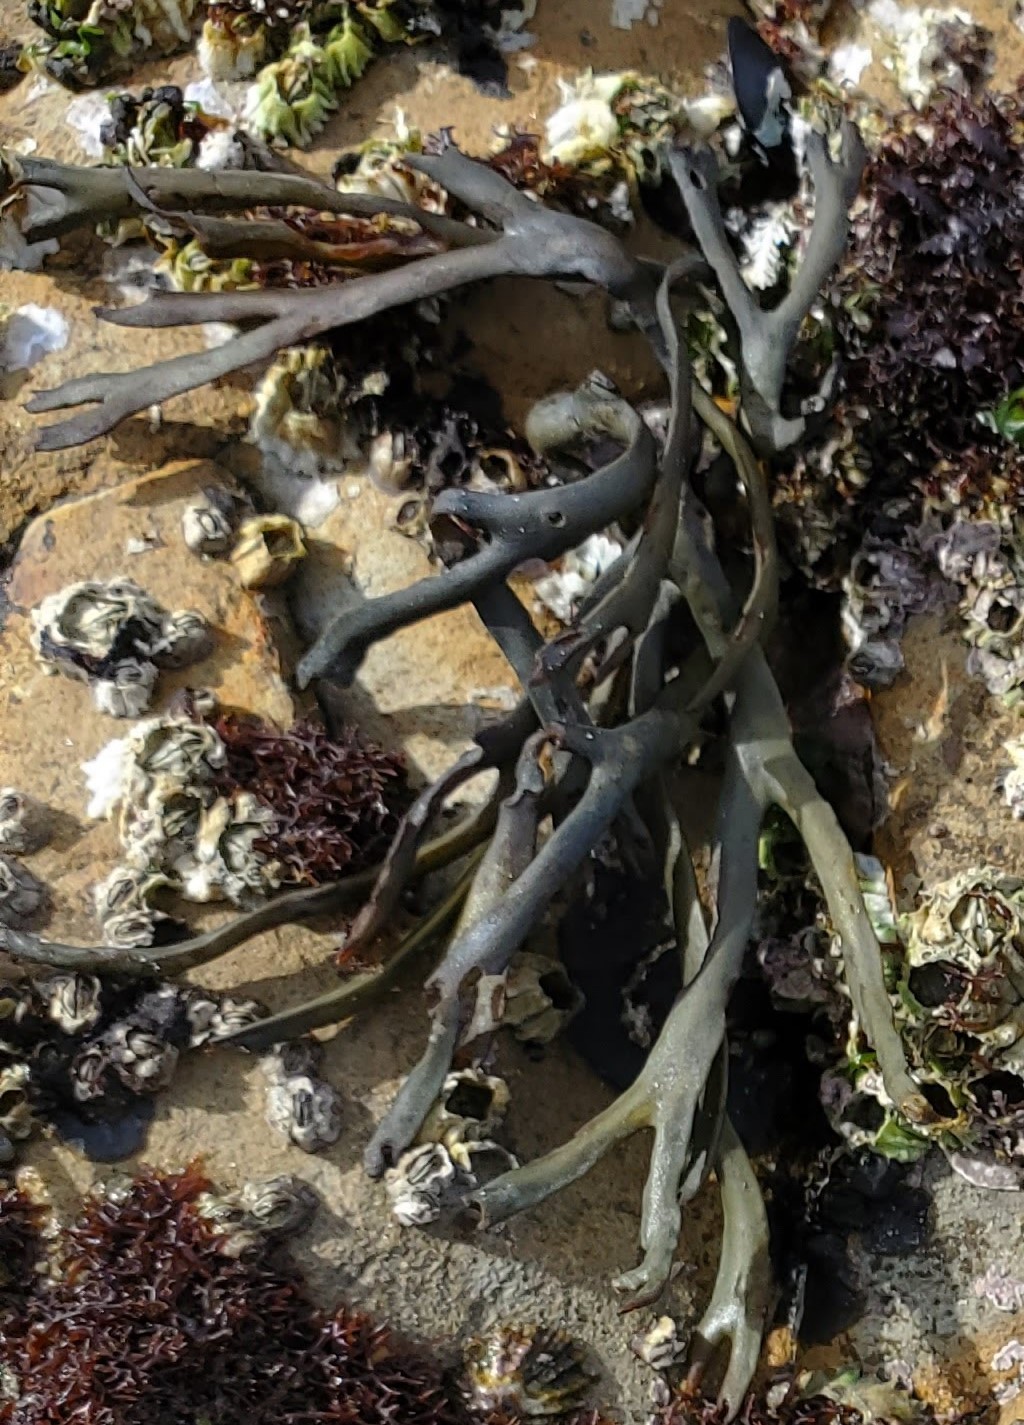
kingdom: Chromista
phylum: Ochrophyta
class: Phaeophyceae
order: Fucales
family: Fucaceae
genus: Silvetia
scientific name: Silvetia
